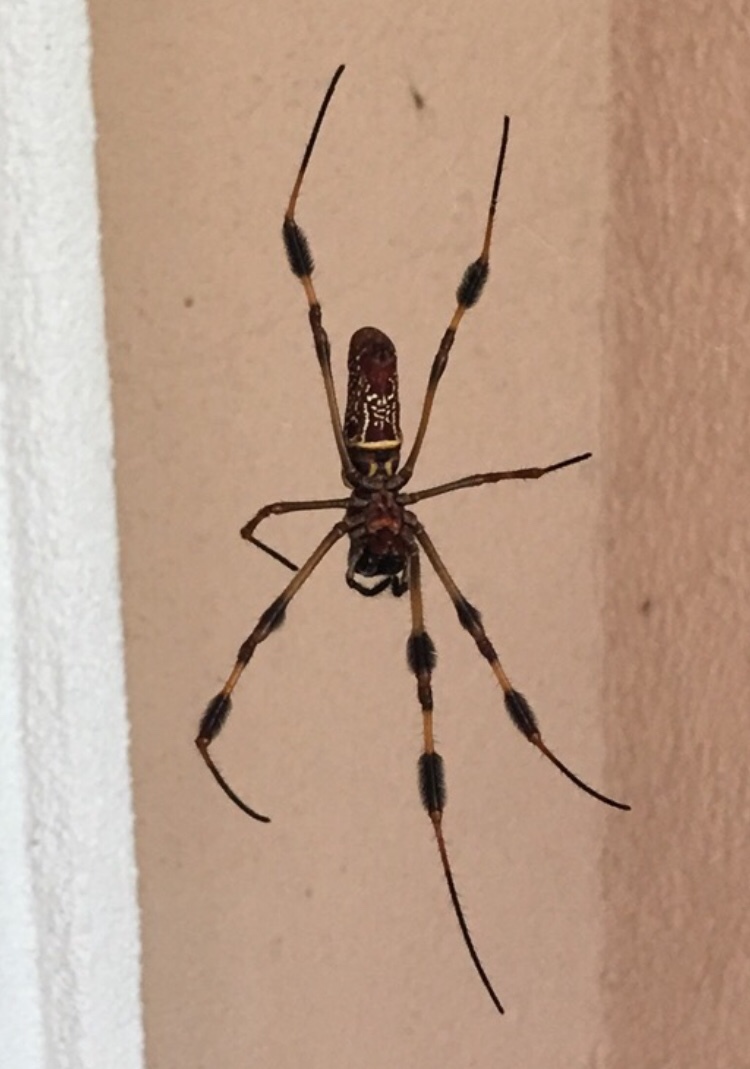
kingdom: Animalia
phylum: Arthropoda
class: Arachnida
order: Araneae
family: Araneidae
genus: Trichonephila
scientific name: Trichonephila clavipes
